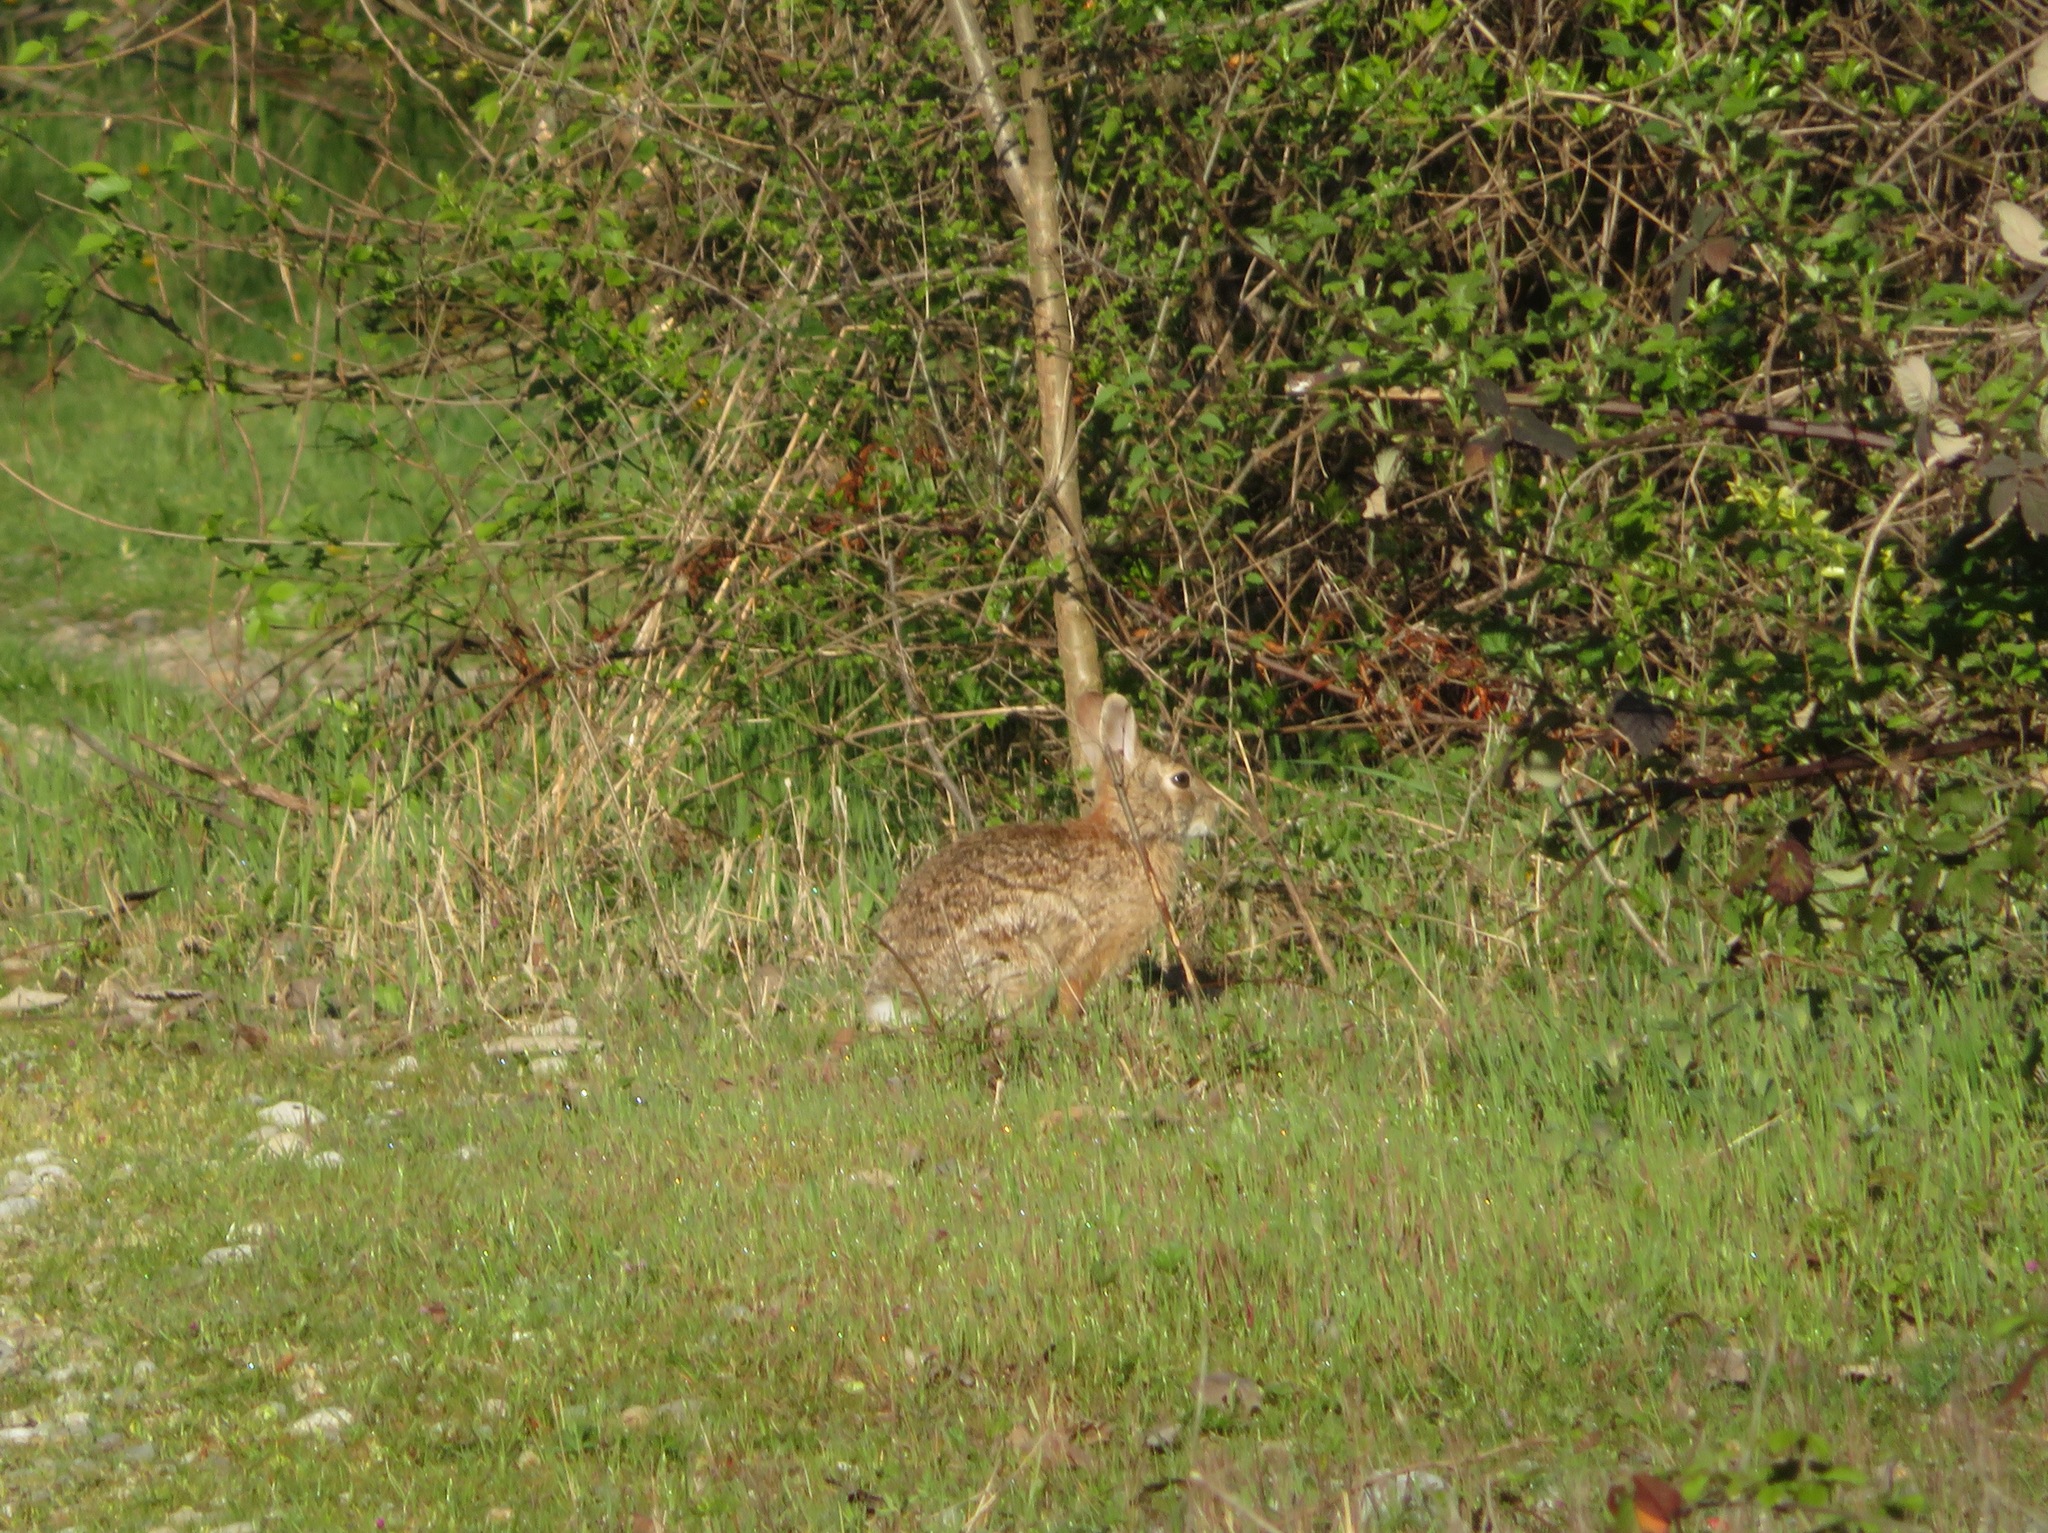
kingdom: Animalia
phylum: Chordata
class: Mammalia
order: Lagomorpha
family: Leporidae
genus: Oryctolagus
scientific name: Oryctolagus cuniculus
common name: European rabbit
